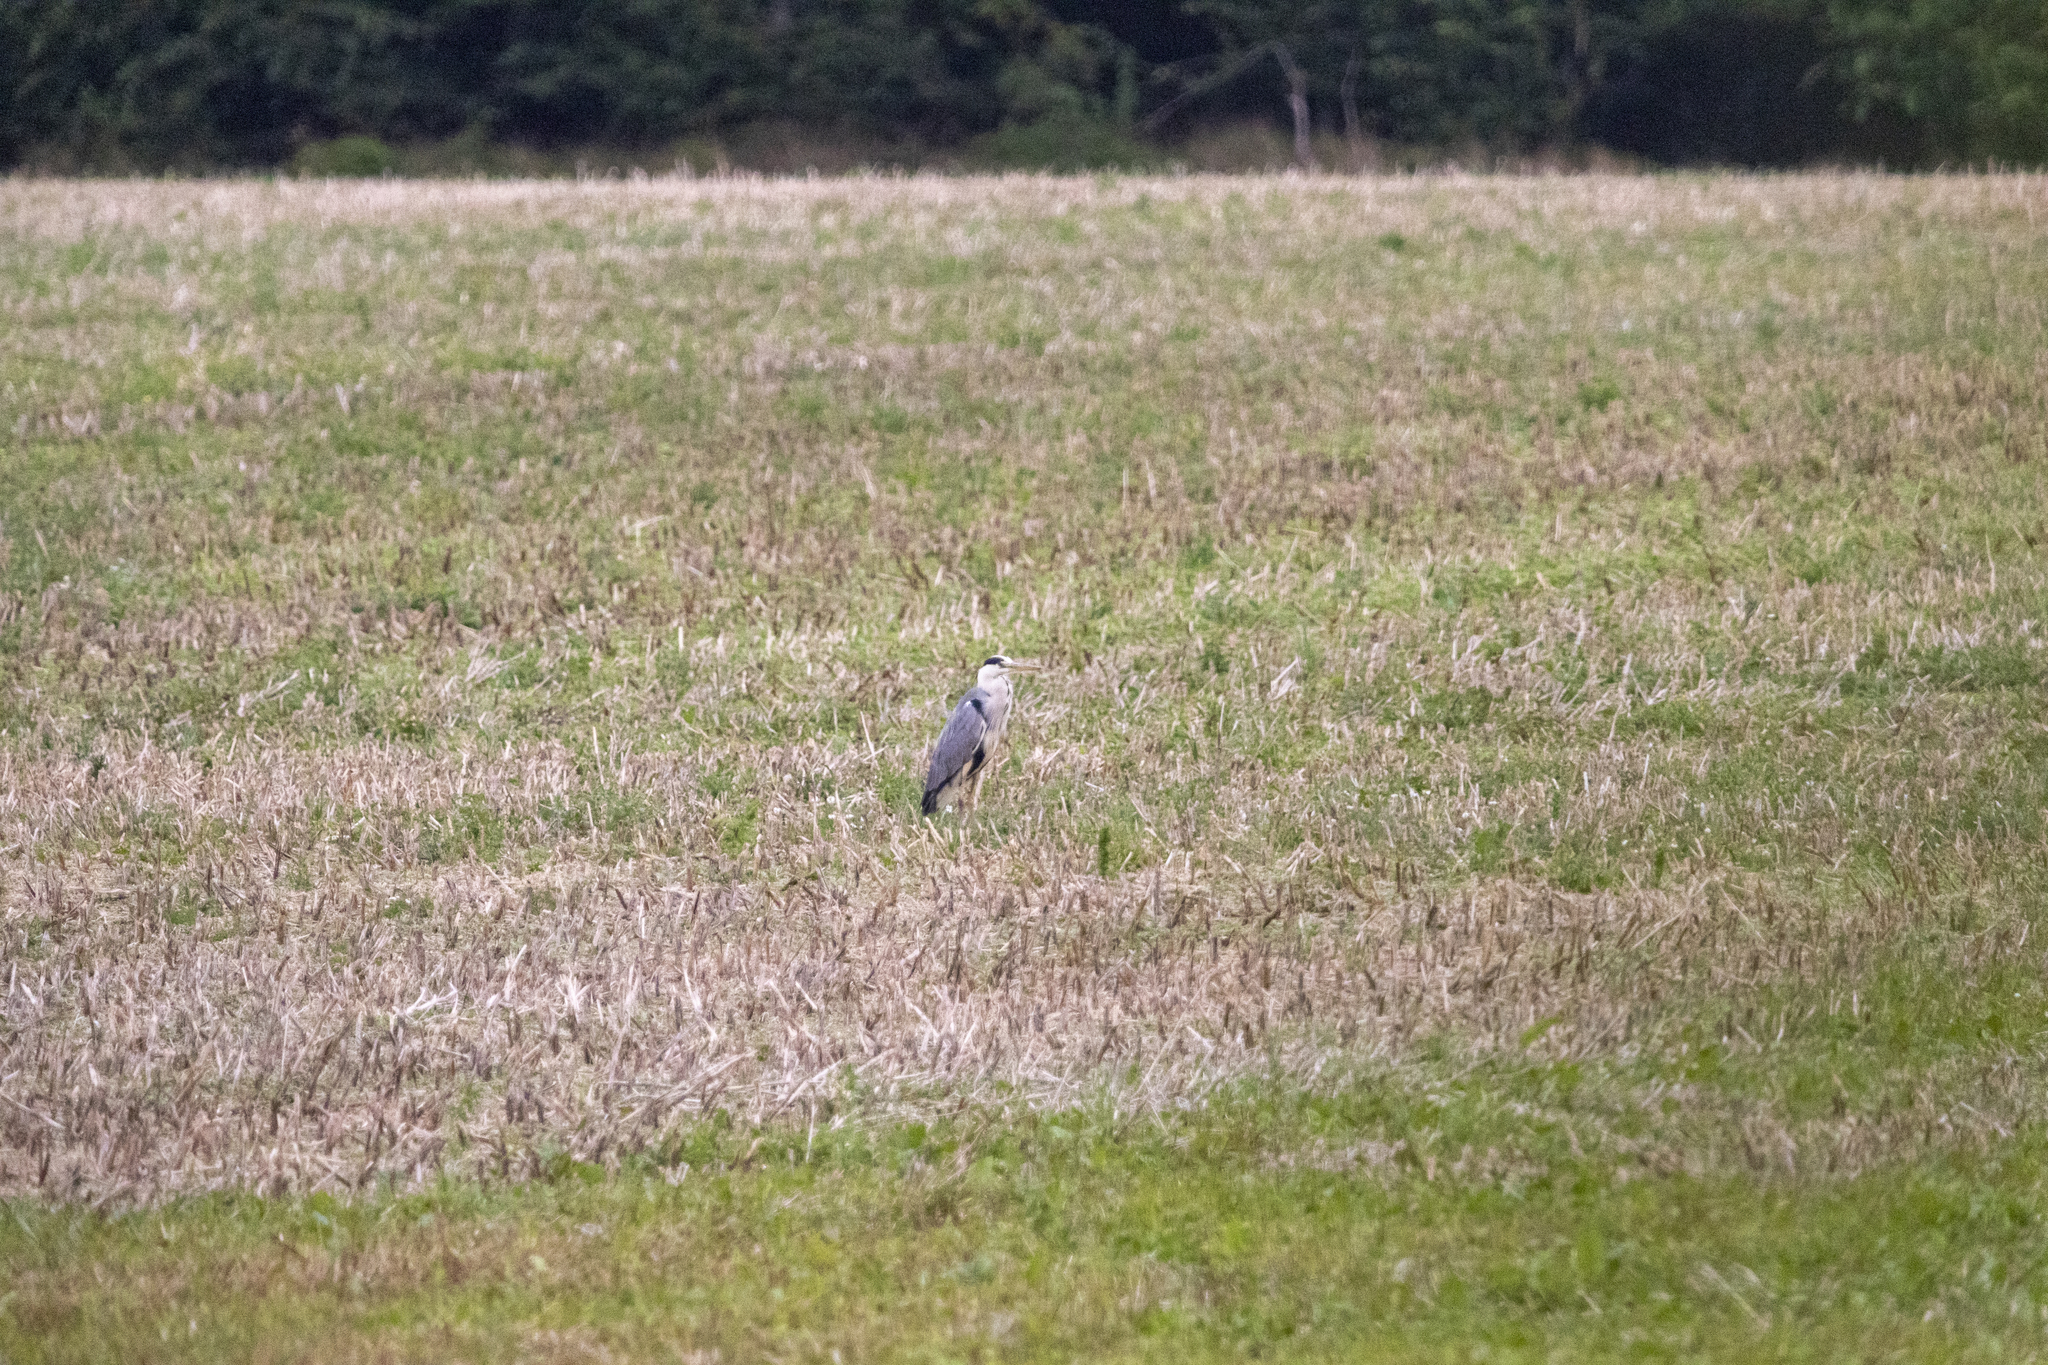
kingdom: Animalia
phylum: Chordata
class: Aves
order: Pelecaniformes
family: Ardeidae
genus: Ardea
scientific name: Ardea cinerea
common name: Grey heron
